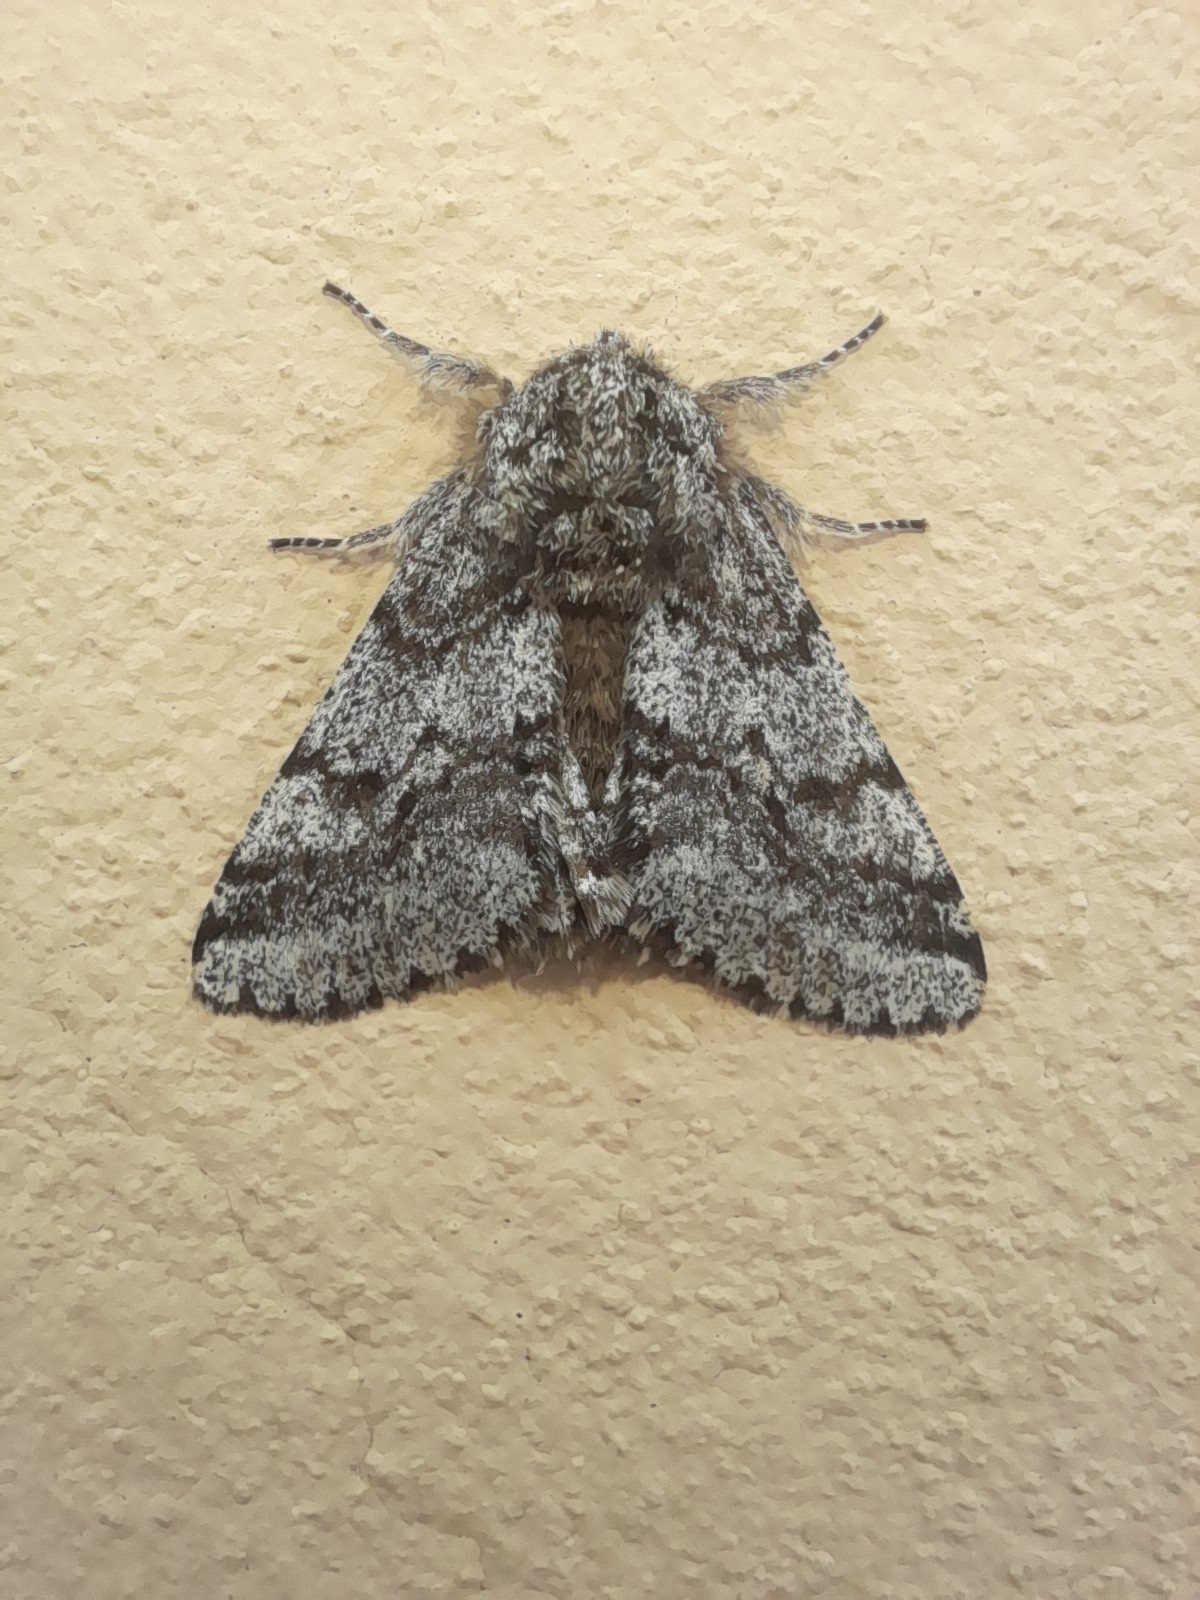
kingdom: Animalia
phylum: Arthropoda
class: Insecta
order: Lepidoptera
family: Geometridae
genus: Lycia
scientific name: Lycia hirtaria
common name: Brindled beauty
